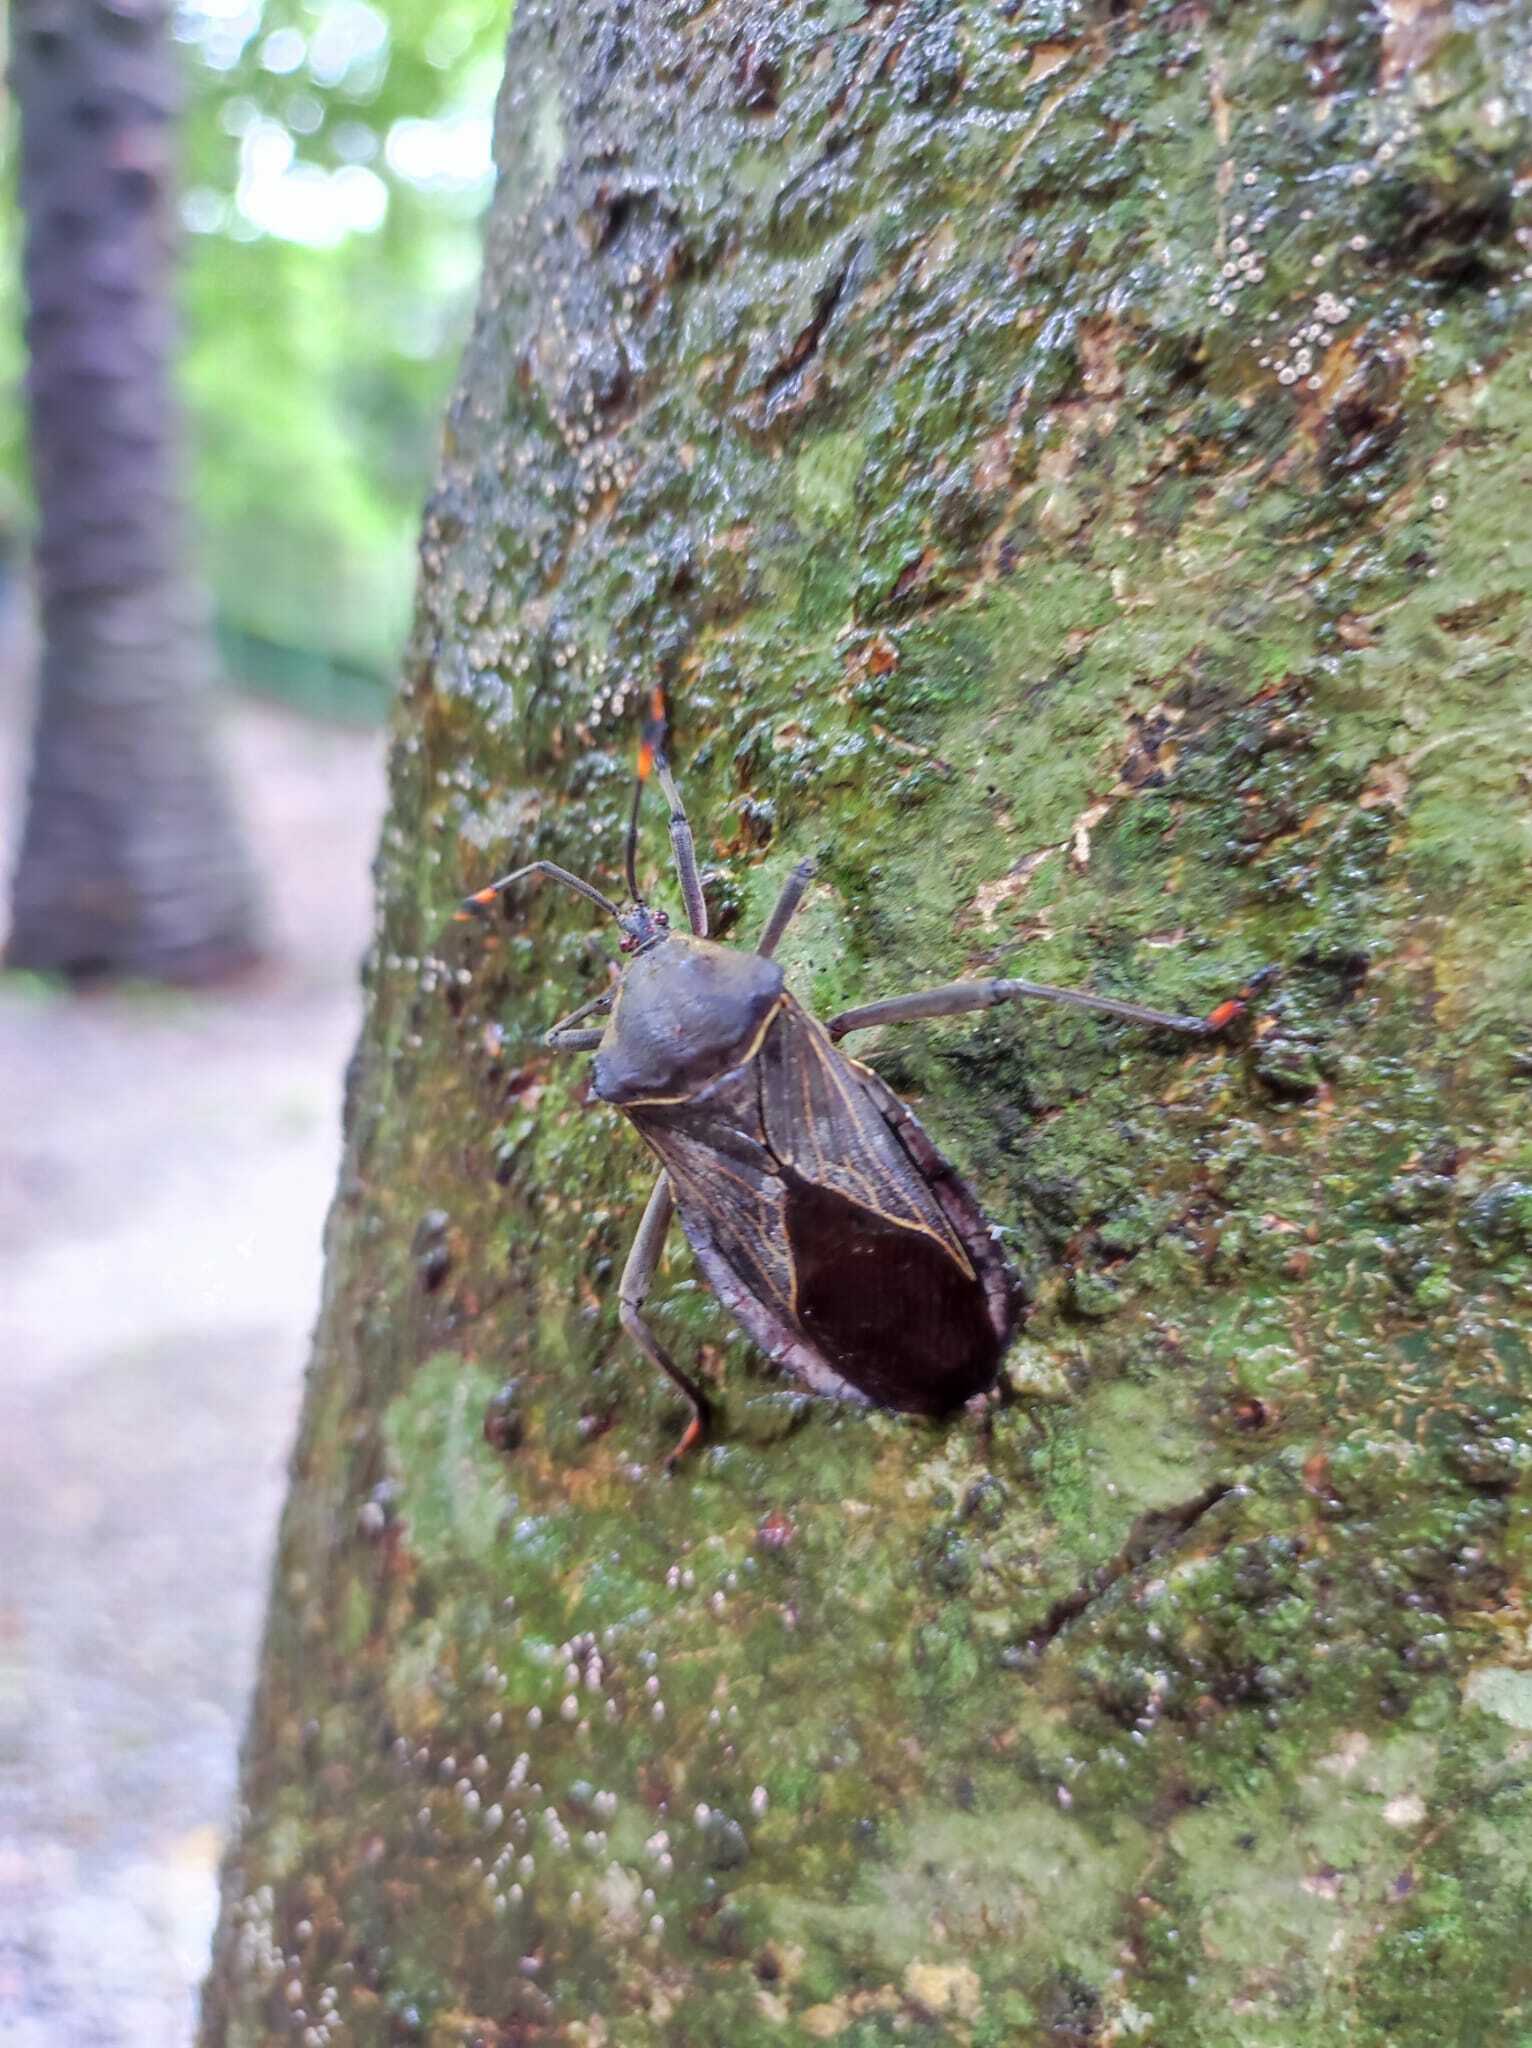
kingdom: Animalia
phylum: Arthropoda
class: Insecta
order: Hemiptera
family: Coreidae
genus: Pachylis
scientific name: Pachylis nervosus
